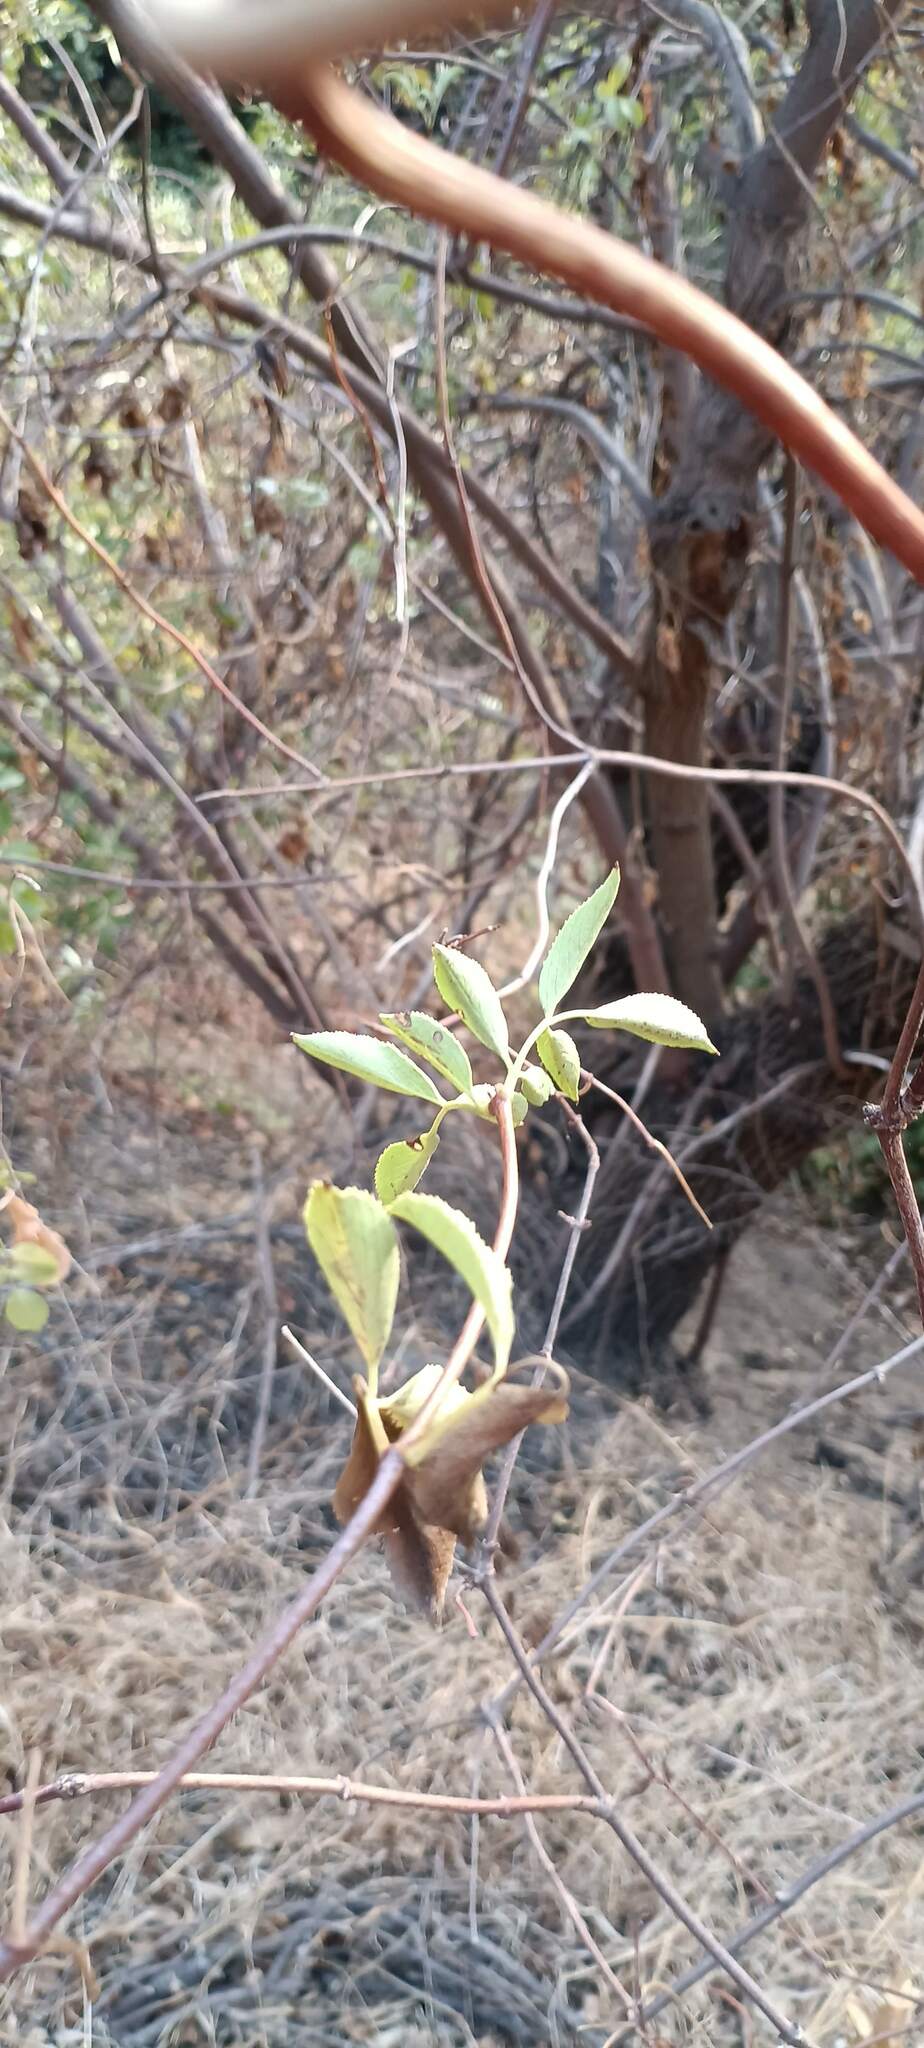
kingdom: Plantae
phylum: Tracheophyta
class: Magnoliopsida
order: Dipsacales
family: Viburnaceae
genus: Sambucus
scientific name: Sambucus cerulea
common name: Blue elder
